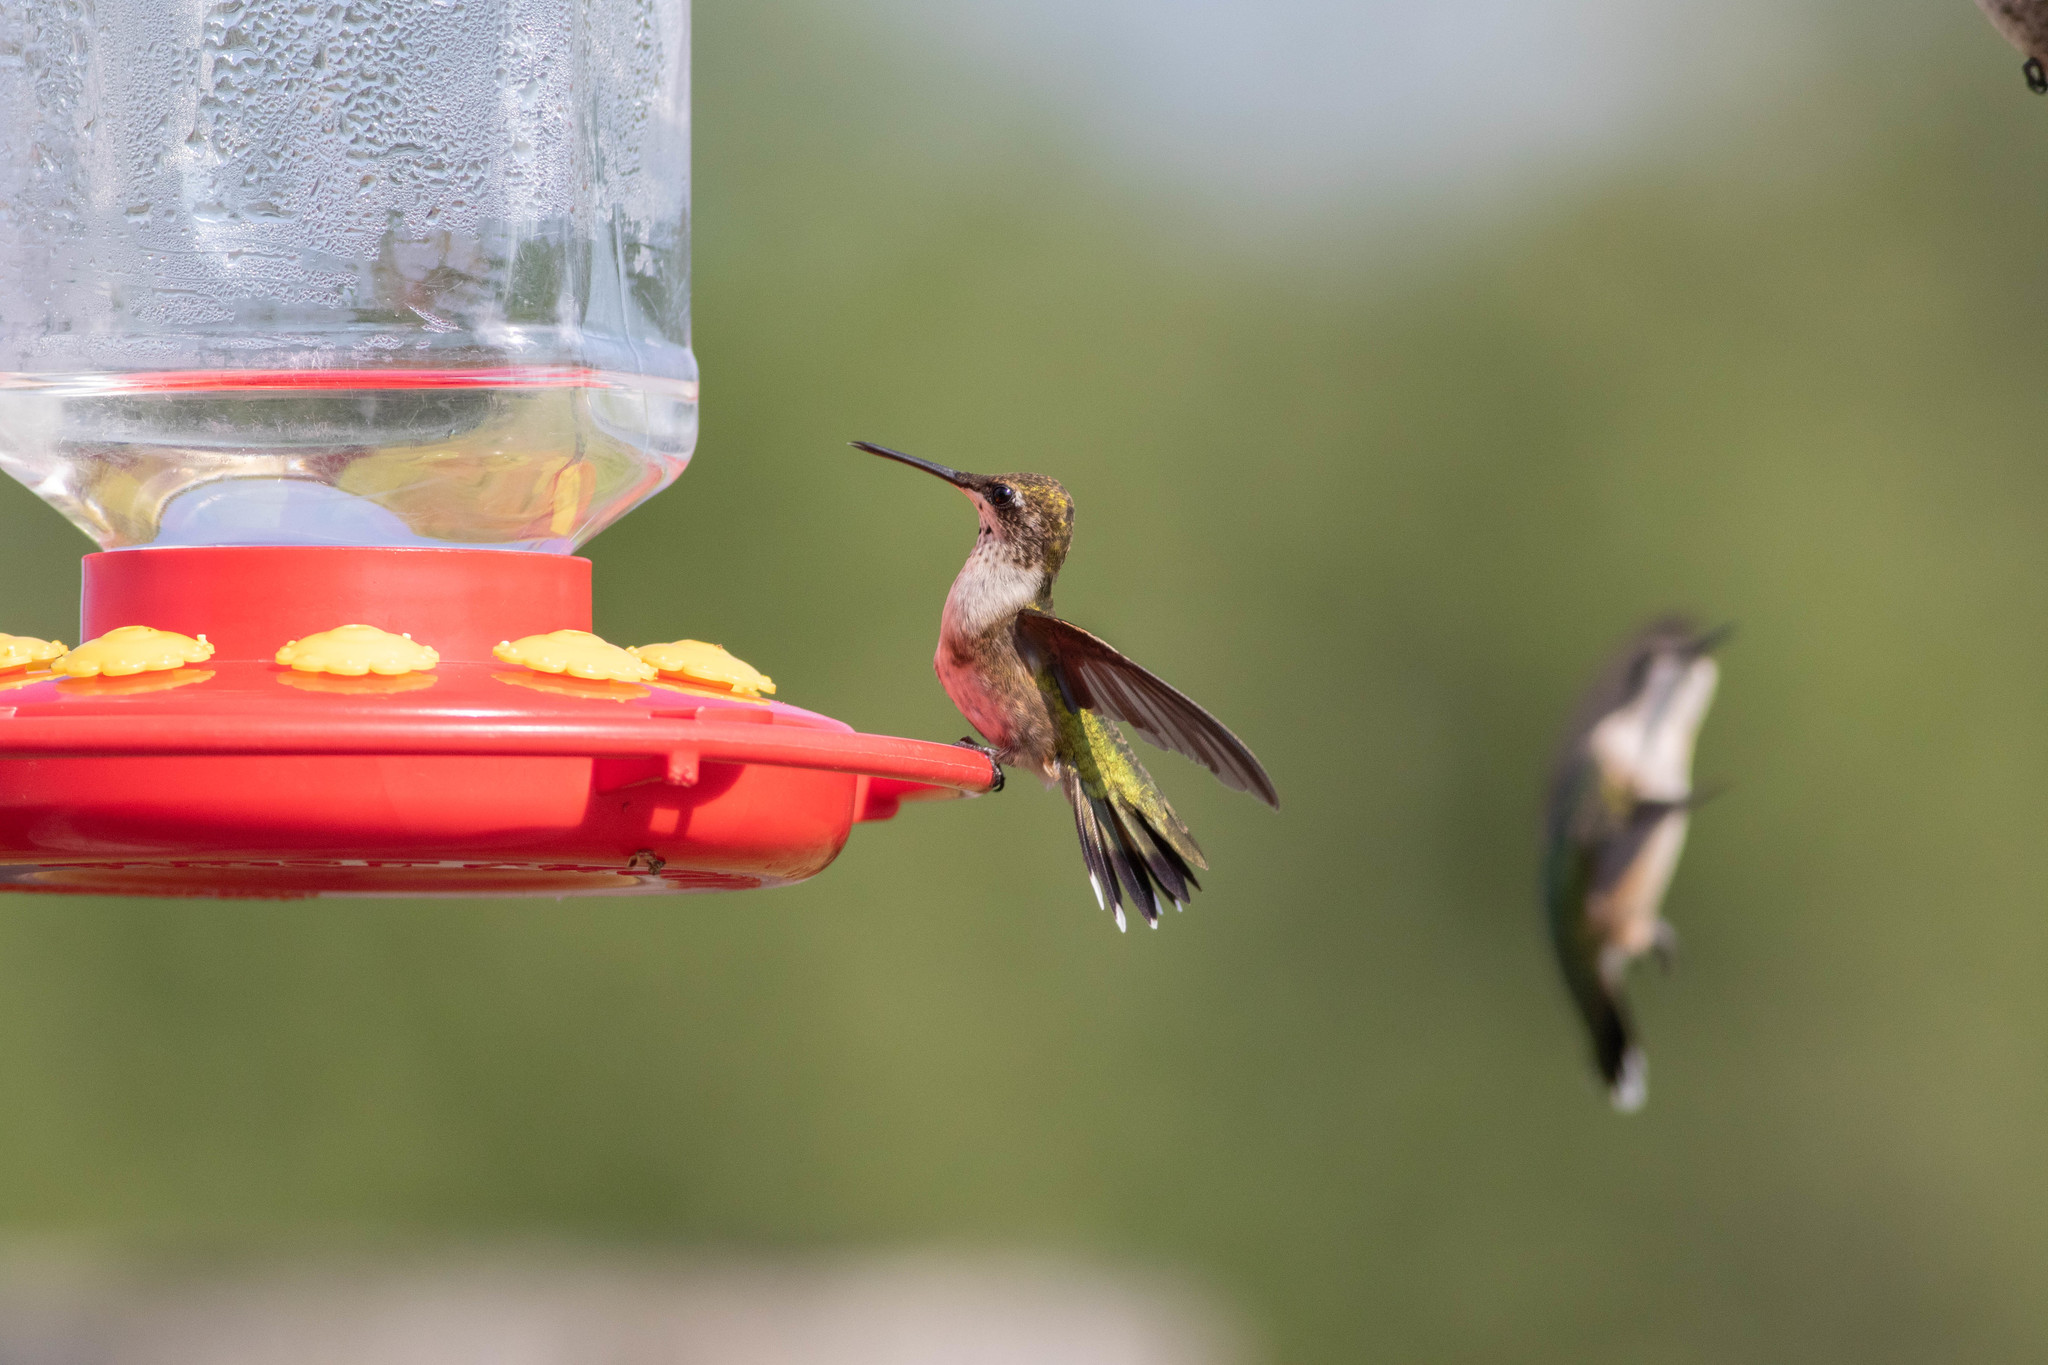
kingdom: Animalia
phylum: Chordata
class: Aves
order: Apodiformes
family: Trochilidae
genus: Archilochus
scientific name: Archilochus colubris
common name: Ruby-throated hummingbird
